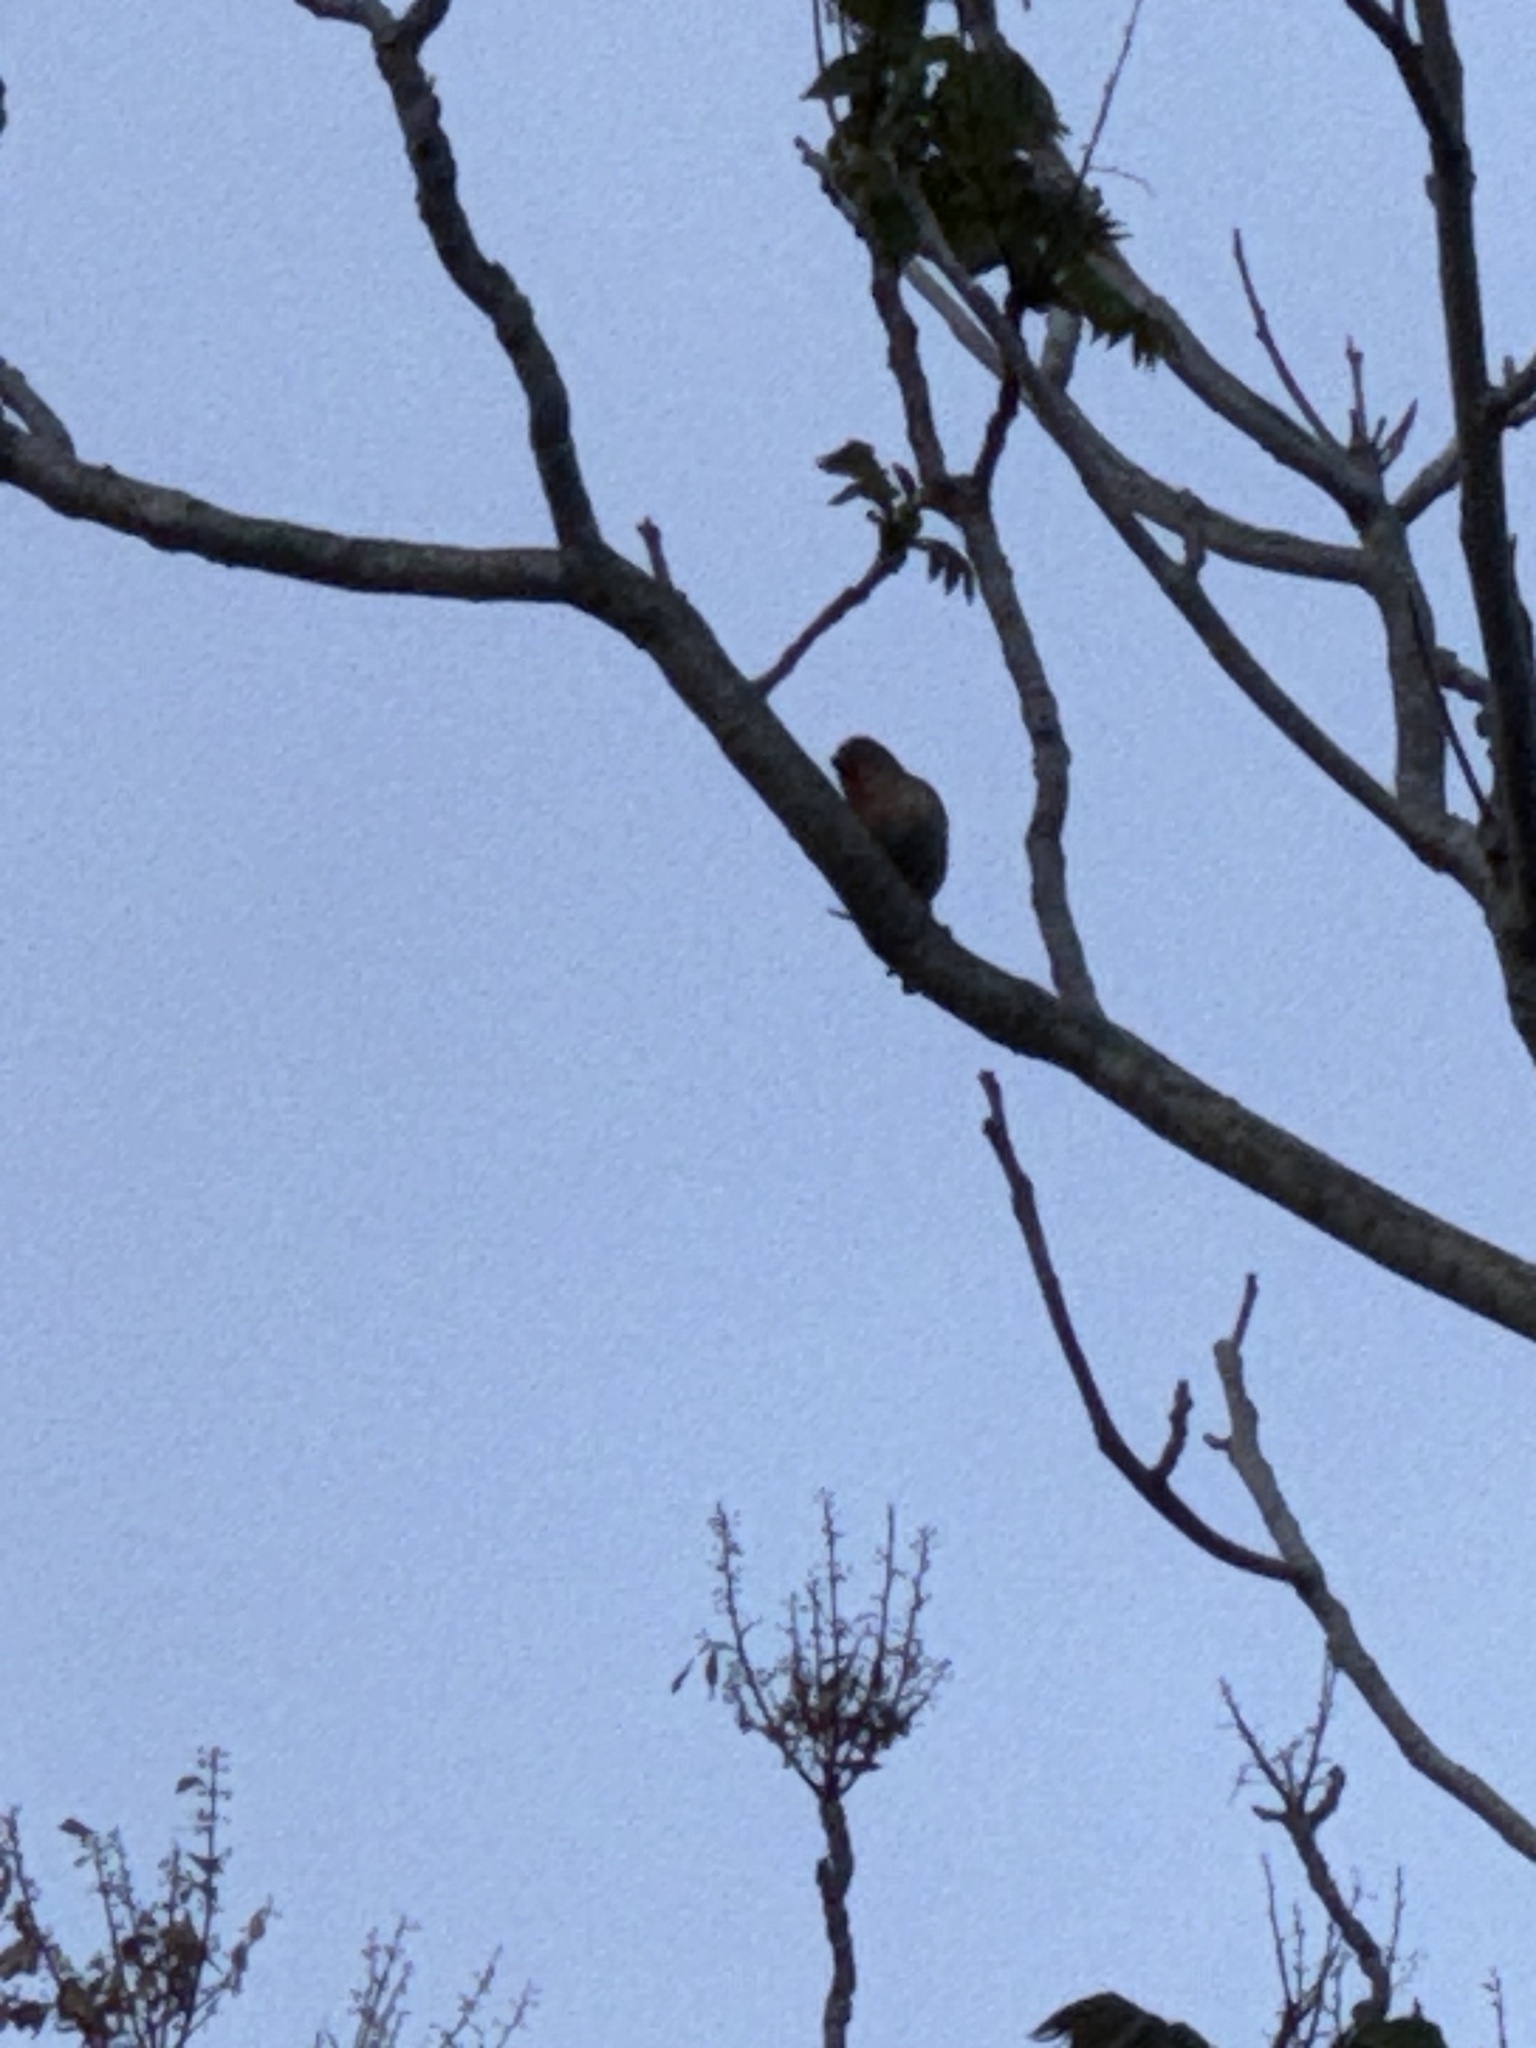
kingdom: Animalia
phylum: Chordata
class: Aves
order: Passeriformes
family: Fringillidae
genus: Haemorhous
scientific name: Haemorhous mexicanus
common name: House finch
